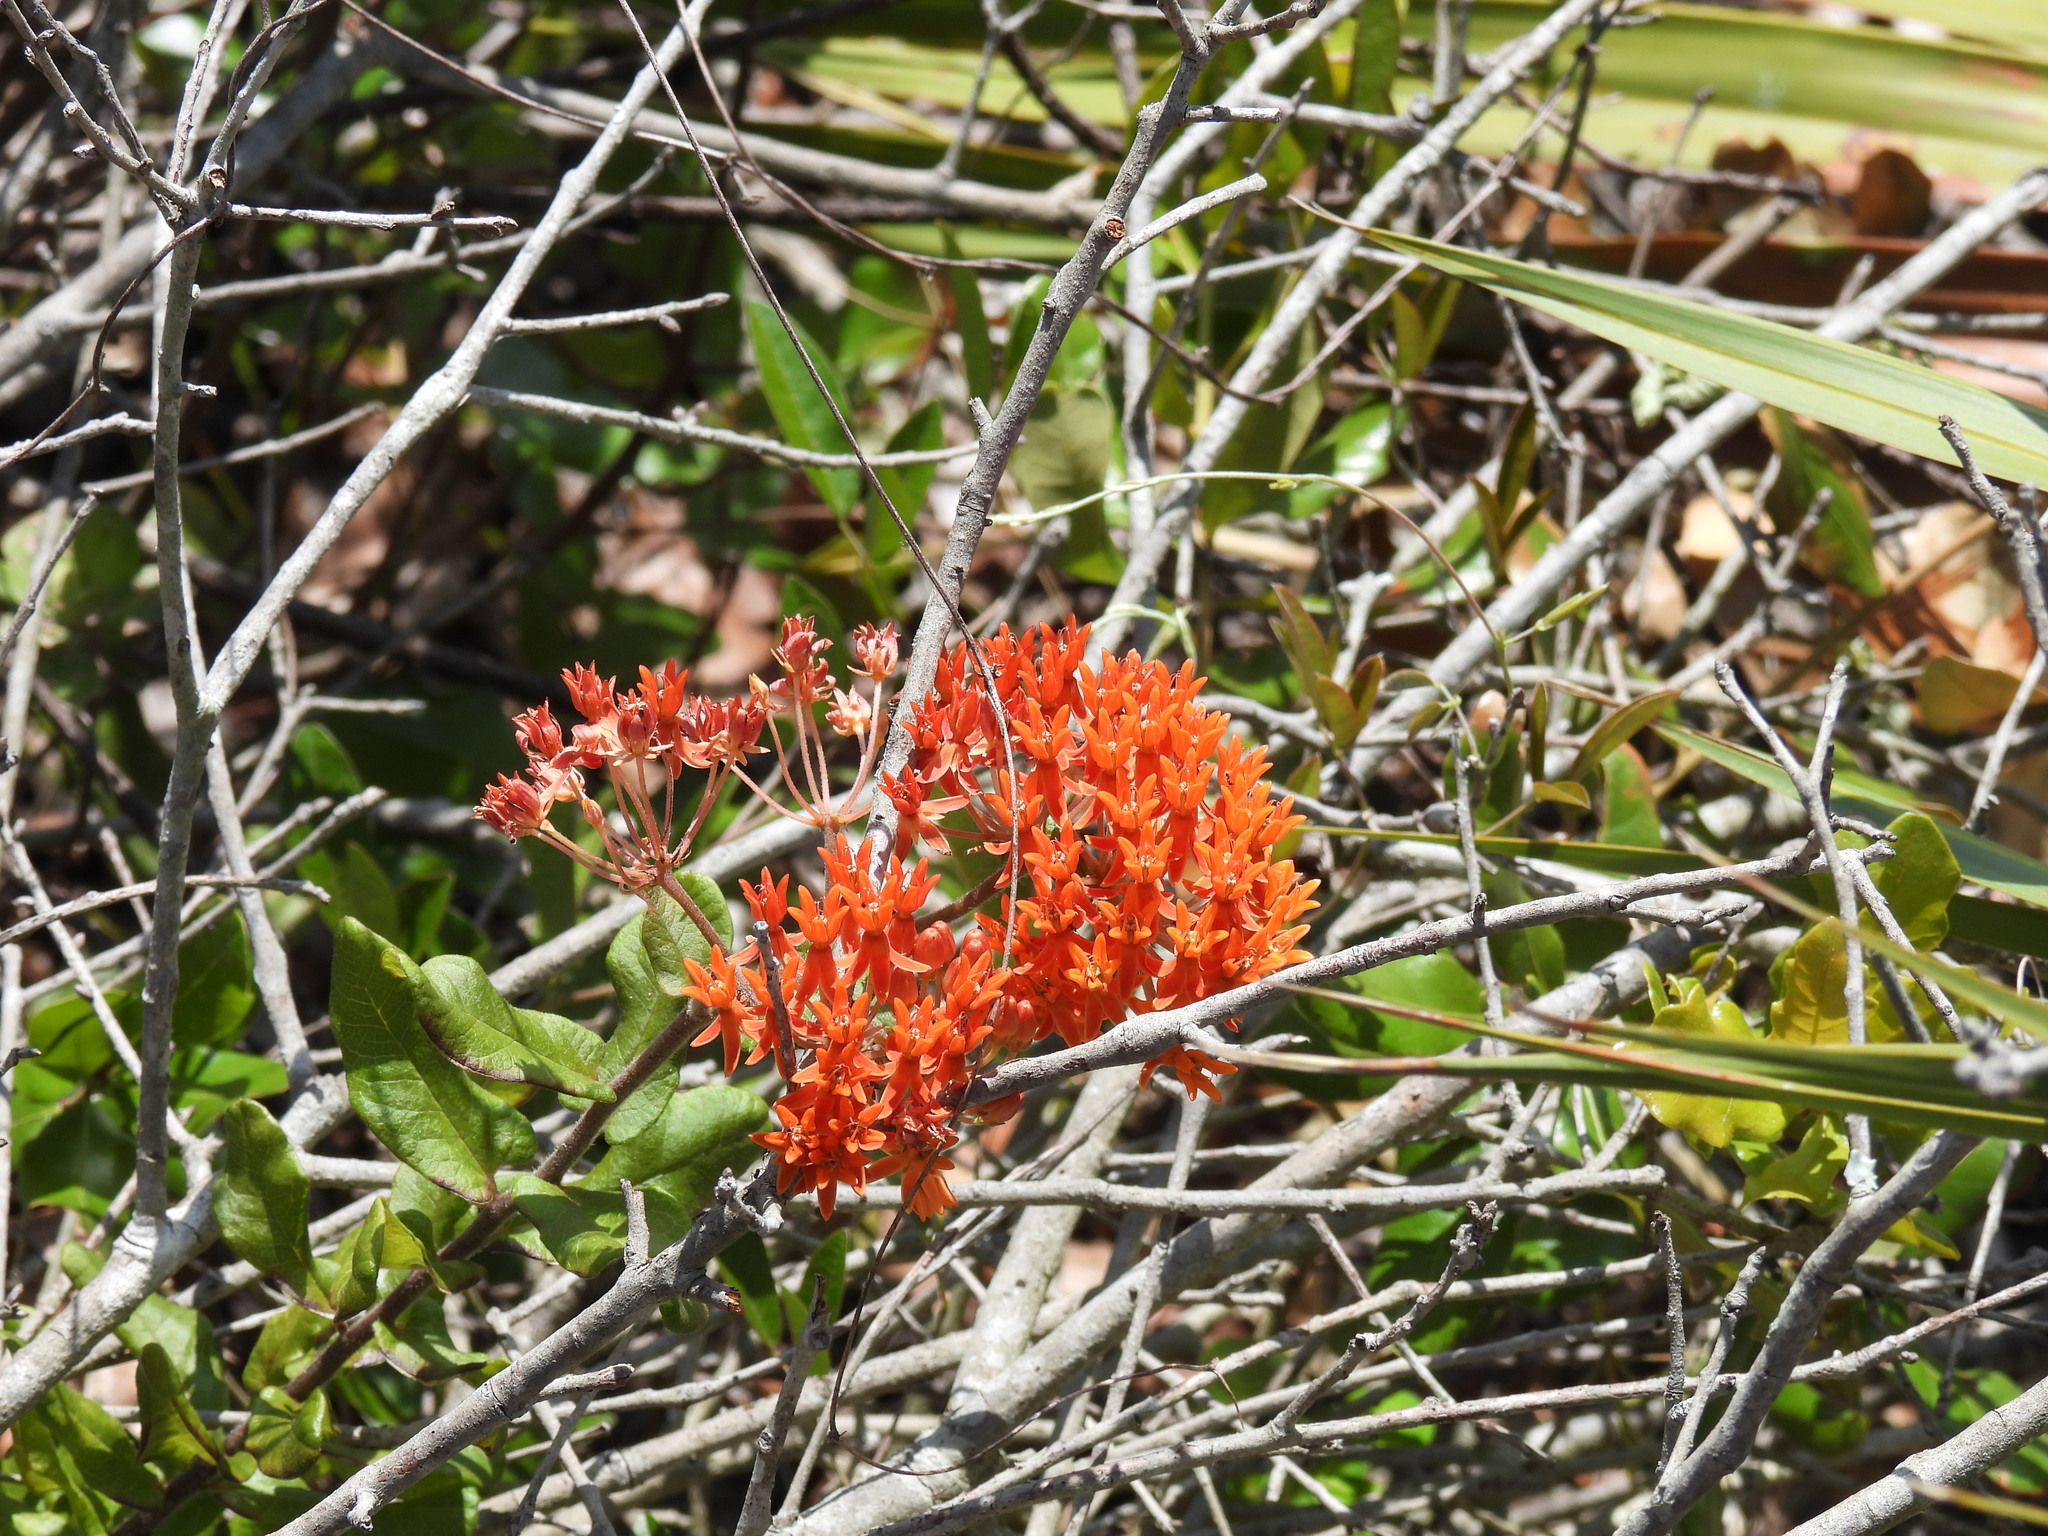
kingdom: Plantae
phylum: Tracheophyta
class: Magnoliopsida
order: Gentianales
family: Apocynaceae
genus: Asclepias
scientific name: Asclepias tuberosa
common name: Butterfly milkweed
